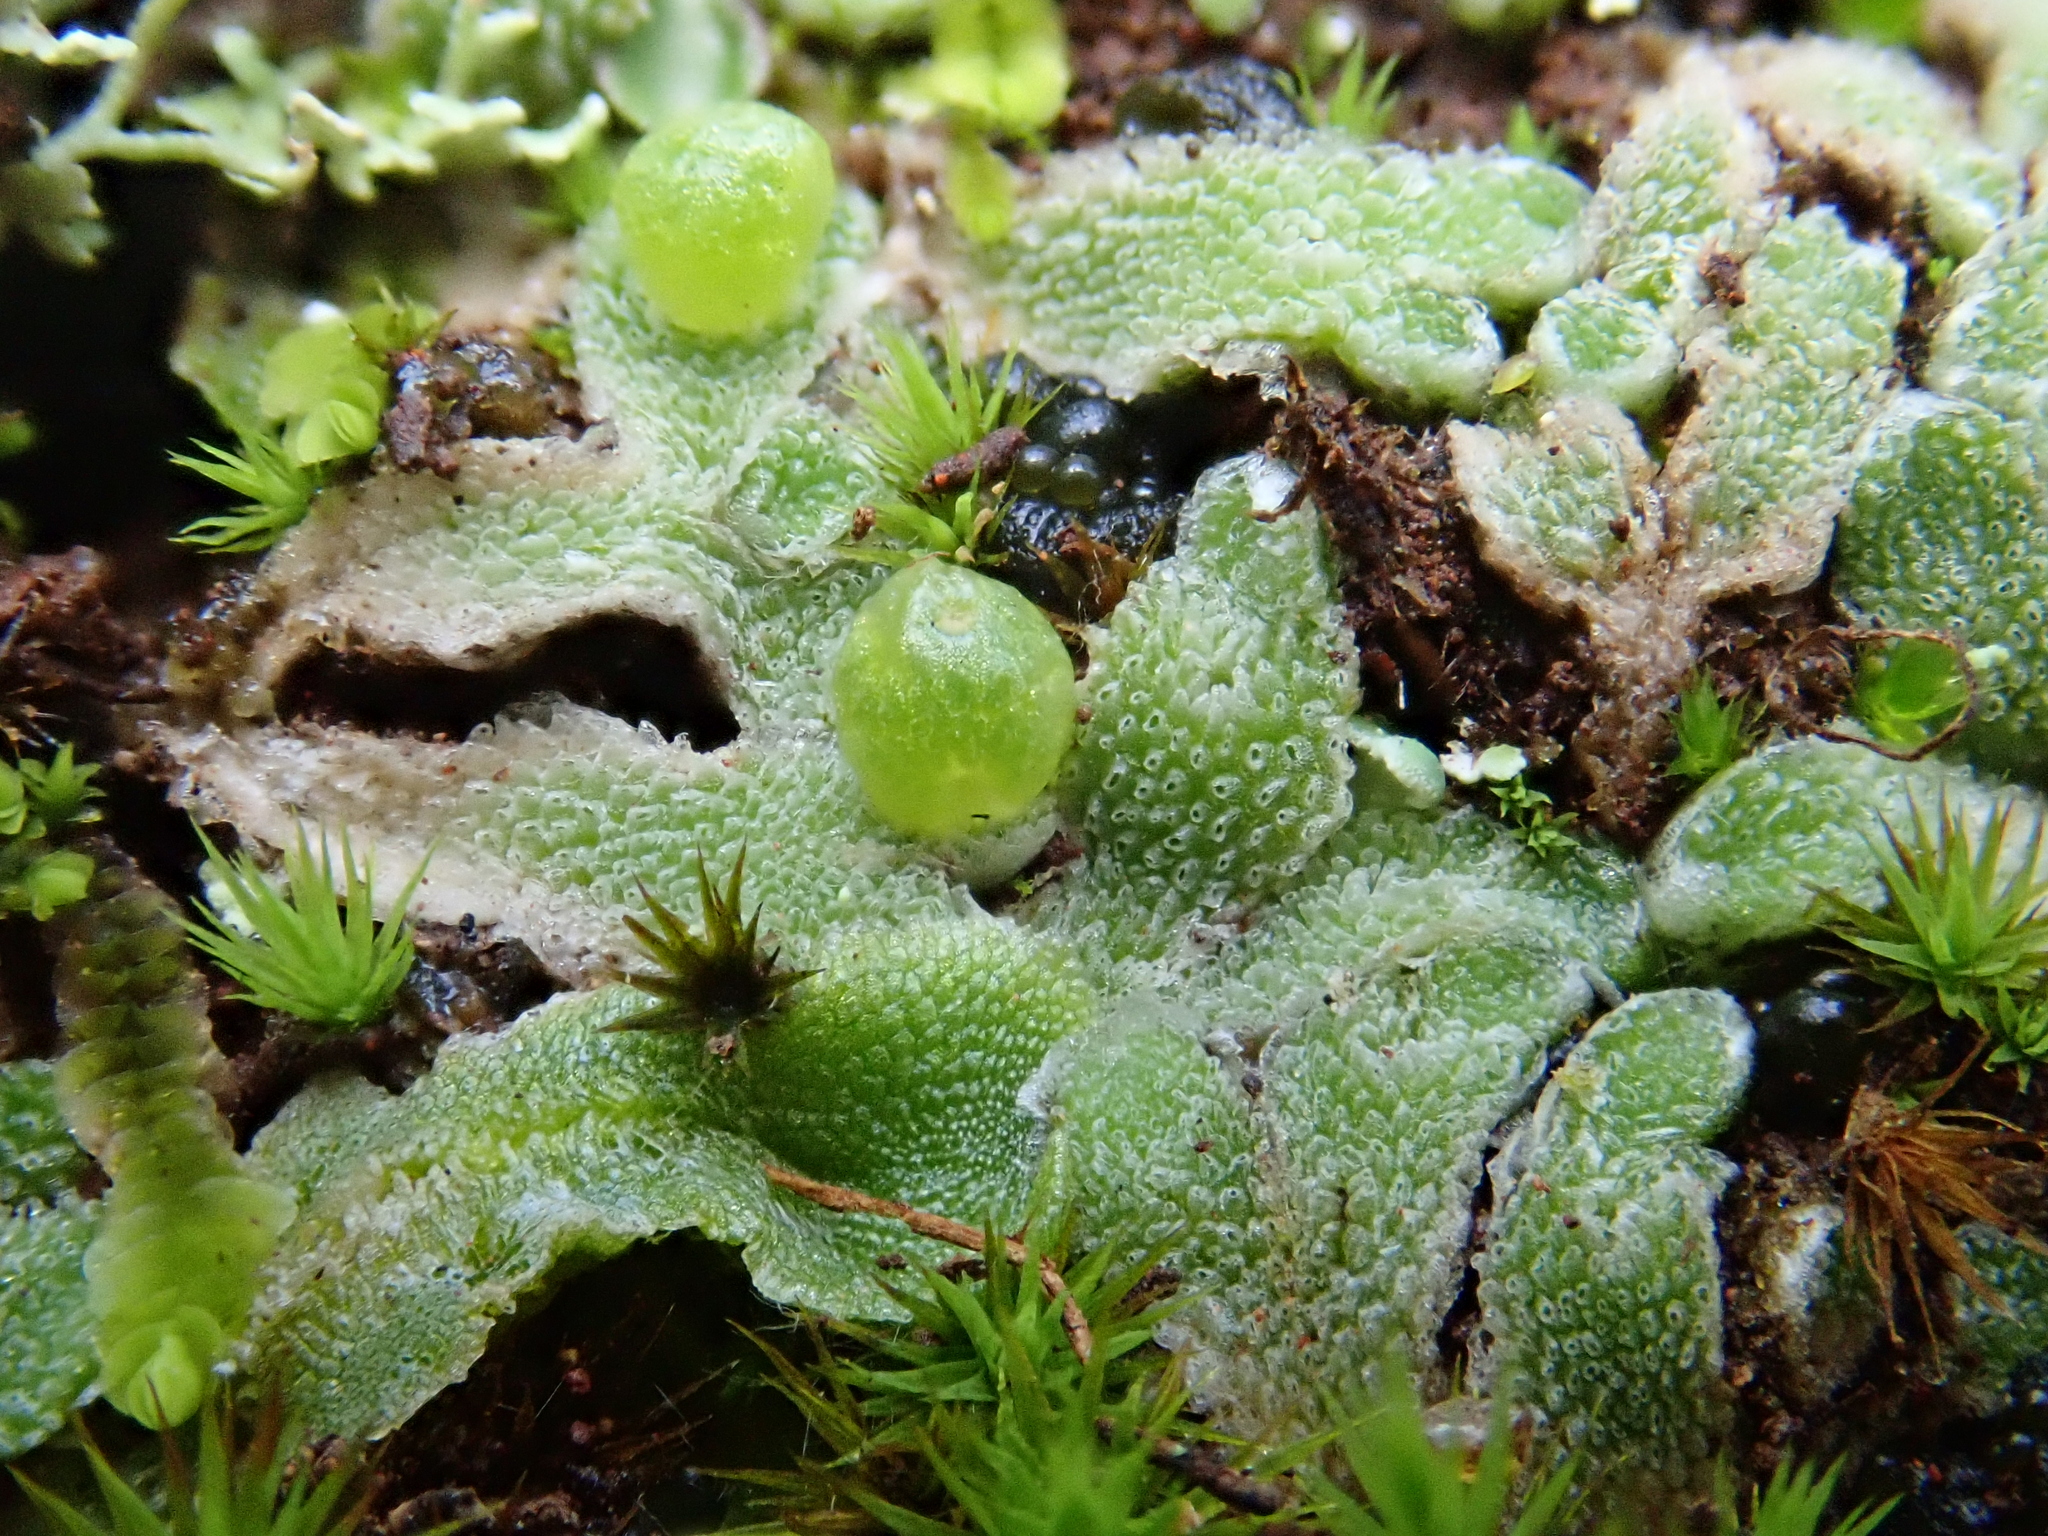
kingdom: Plantae
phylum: Marchantiophyta
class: Marchantiopsida
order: Marchantiales
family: Corsiniaceae
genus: Exormotheca
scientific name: Exormotheca pustulosa
